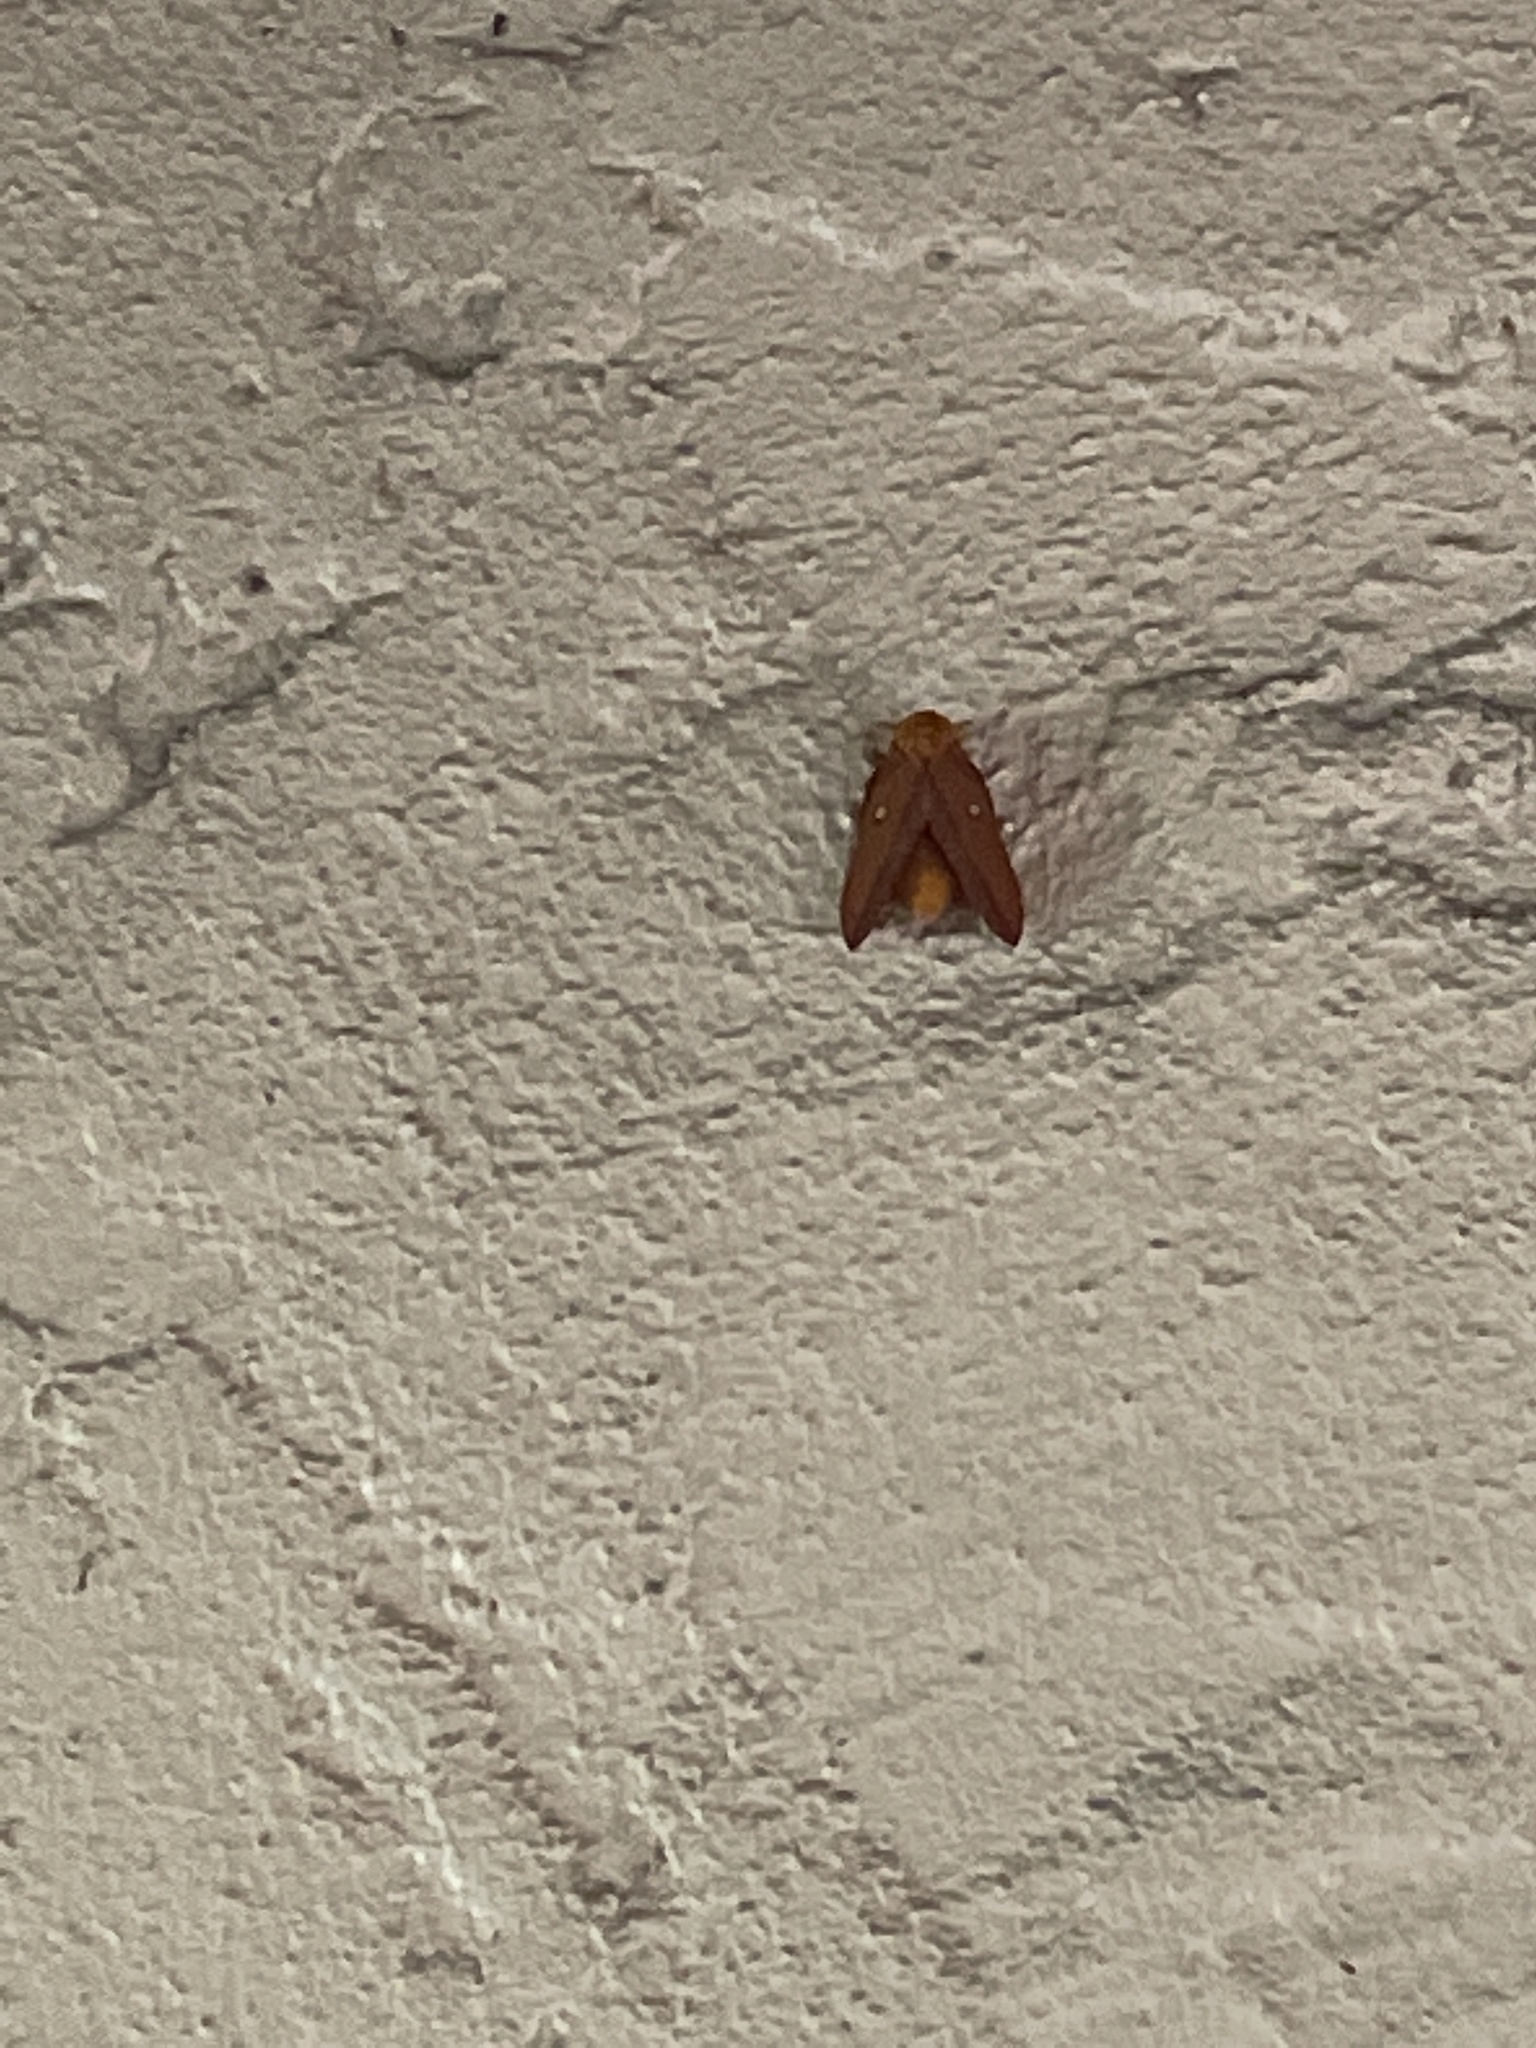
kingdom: Animalia
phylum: Arthropoda
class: Insecta
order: Lepidoptera
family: Saturniidae
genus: Anisota
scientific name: Anisota virginiensis
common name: Pink striped oakworm moth
